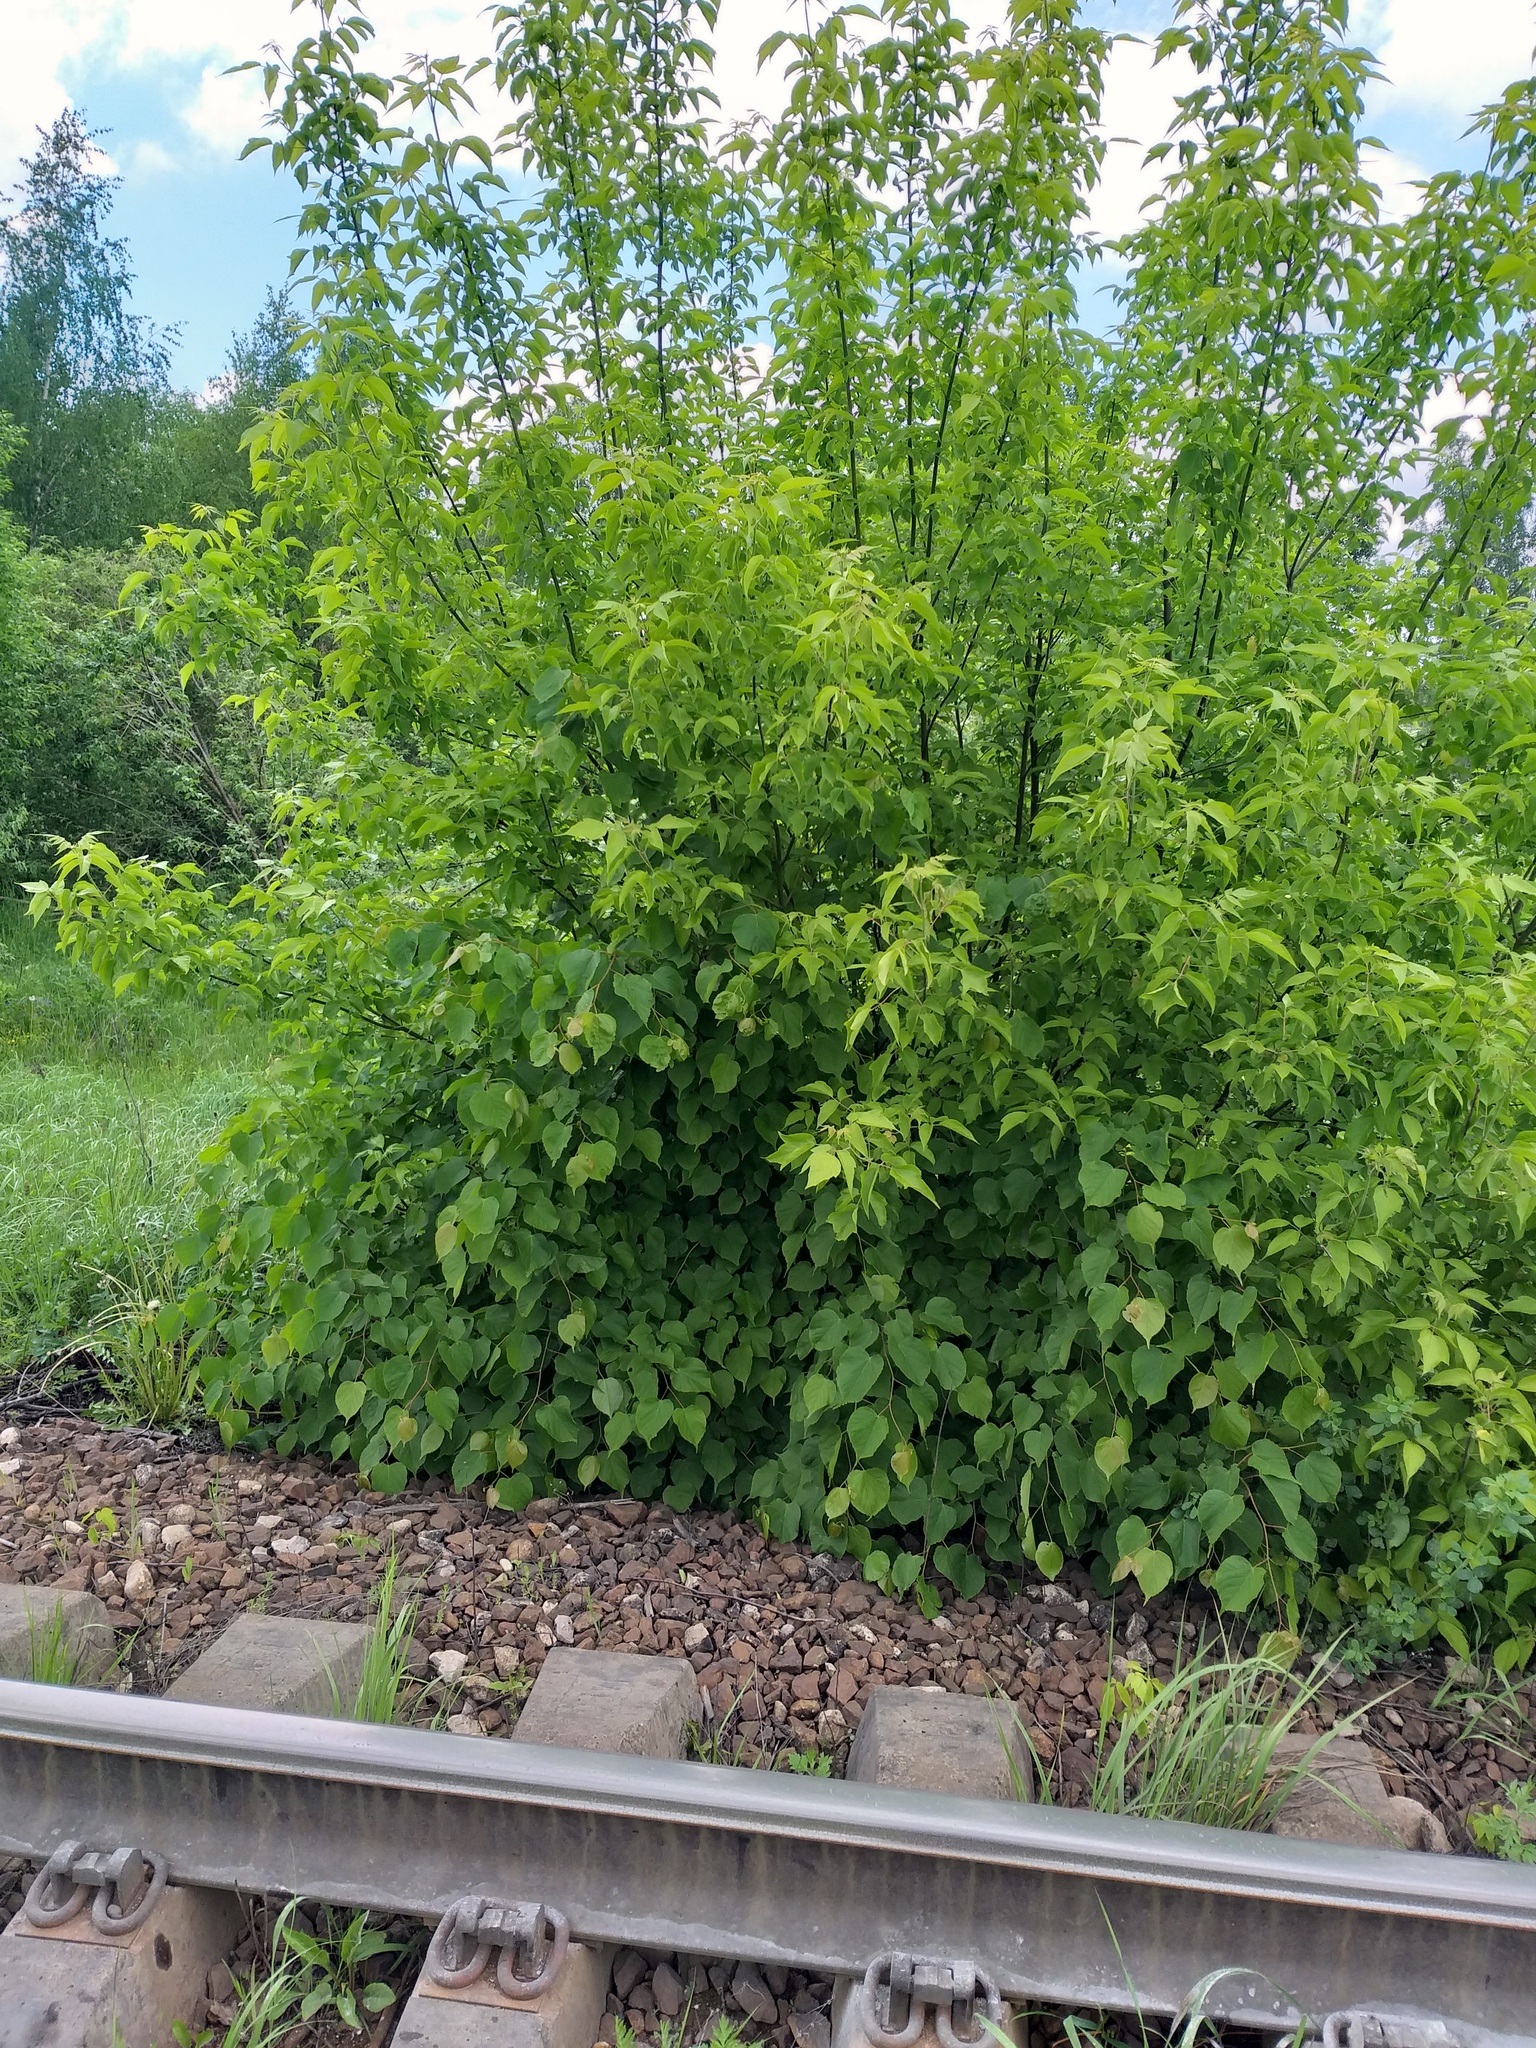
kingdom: Plantae
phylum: Tracheophyta
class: Magnoliopsida
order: Malvales
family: Malvaceae
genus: Tilia
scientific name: Tilia cordata
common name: Small-leaved lime
